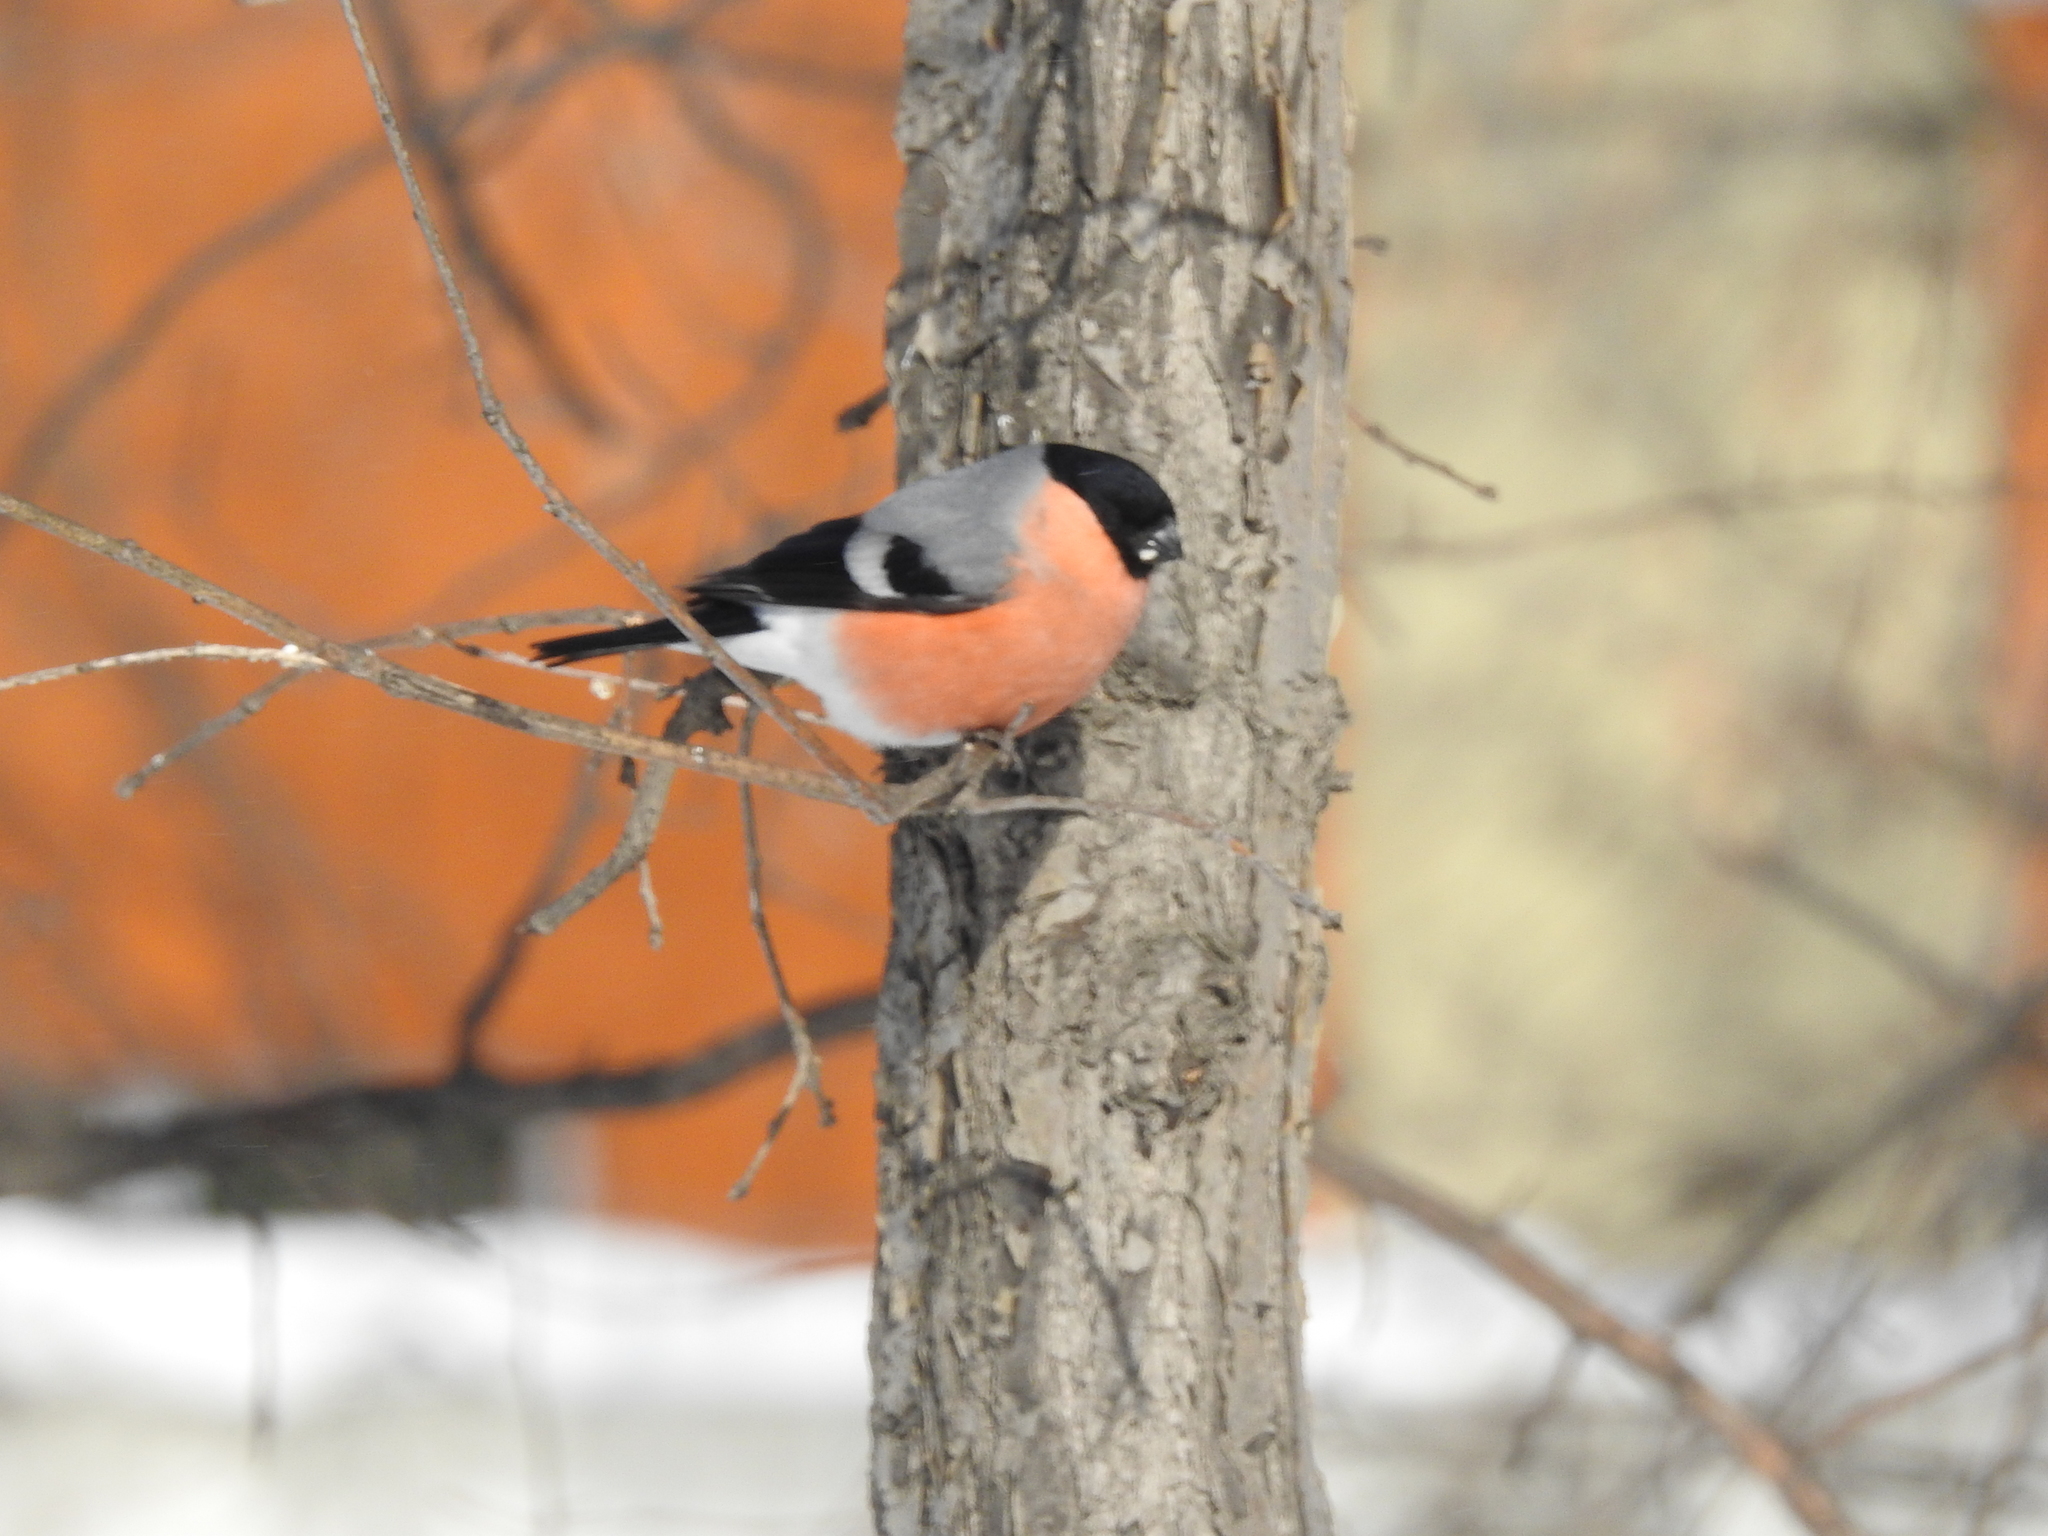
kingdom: Animalia
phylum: Chordata
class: Aves
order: Passeriformes
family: Fringillidae
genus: Pyrrhula
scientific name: Pyrrhula pyrrhula
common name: Eurasian bullfinch
